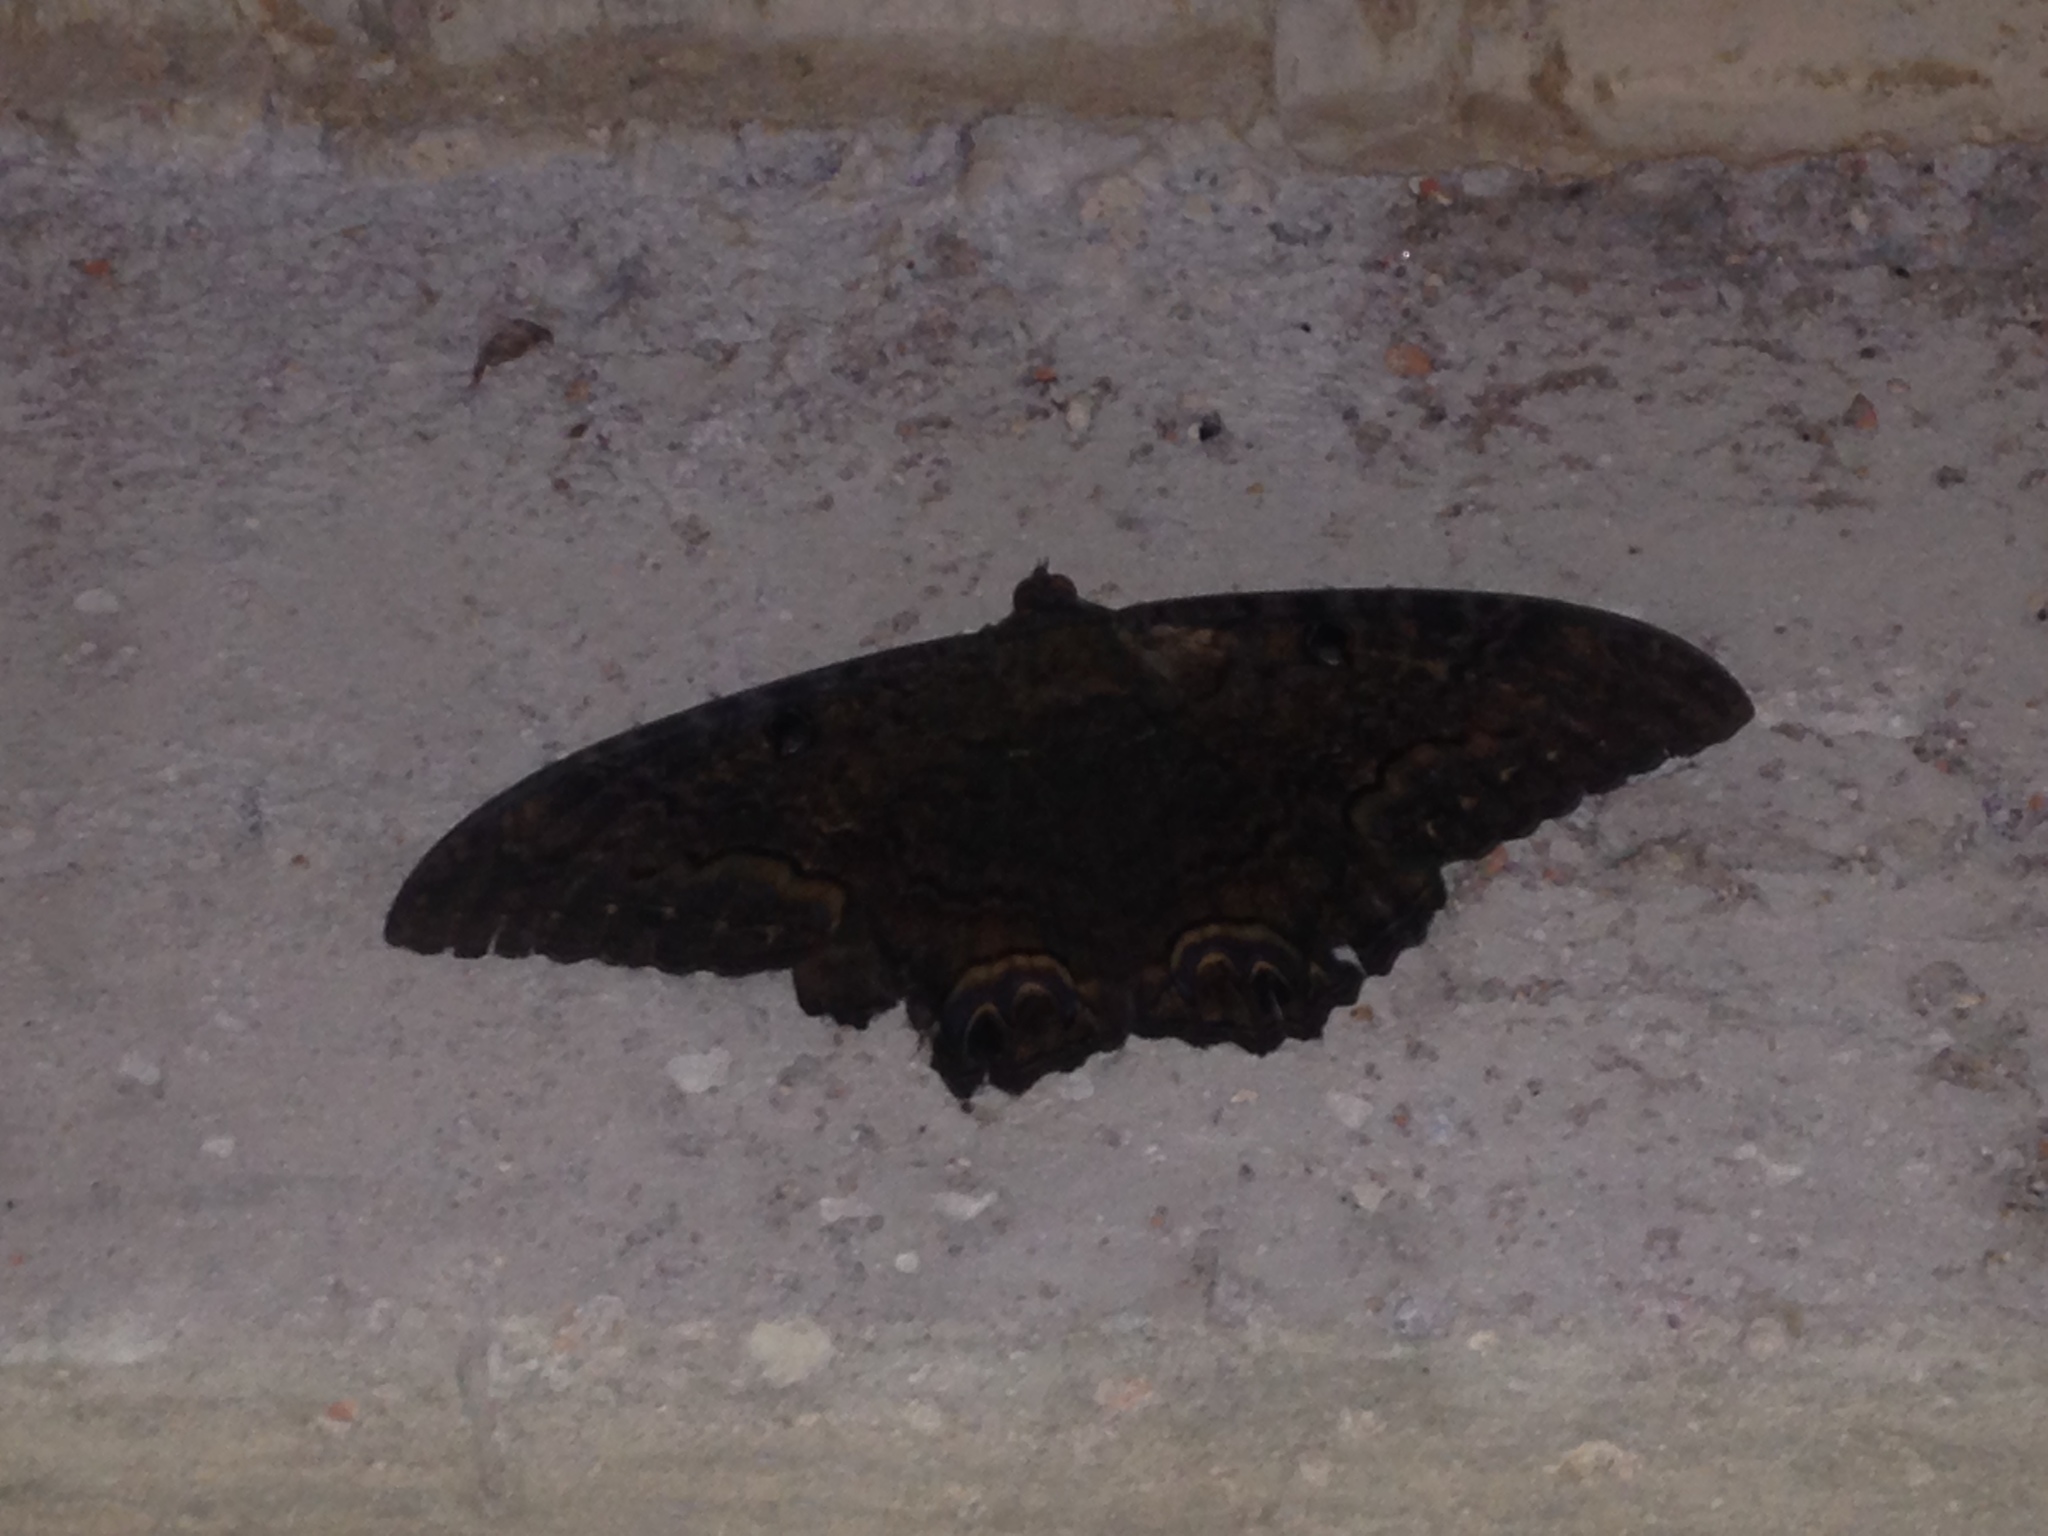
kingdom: Animalia
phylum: Arthropoda
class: Insecta
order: Lepidoptera
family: Erebidae
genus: Ascalapha
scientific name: Ascalapha odorata
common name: Black witch
